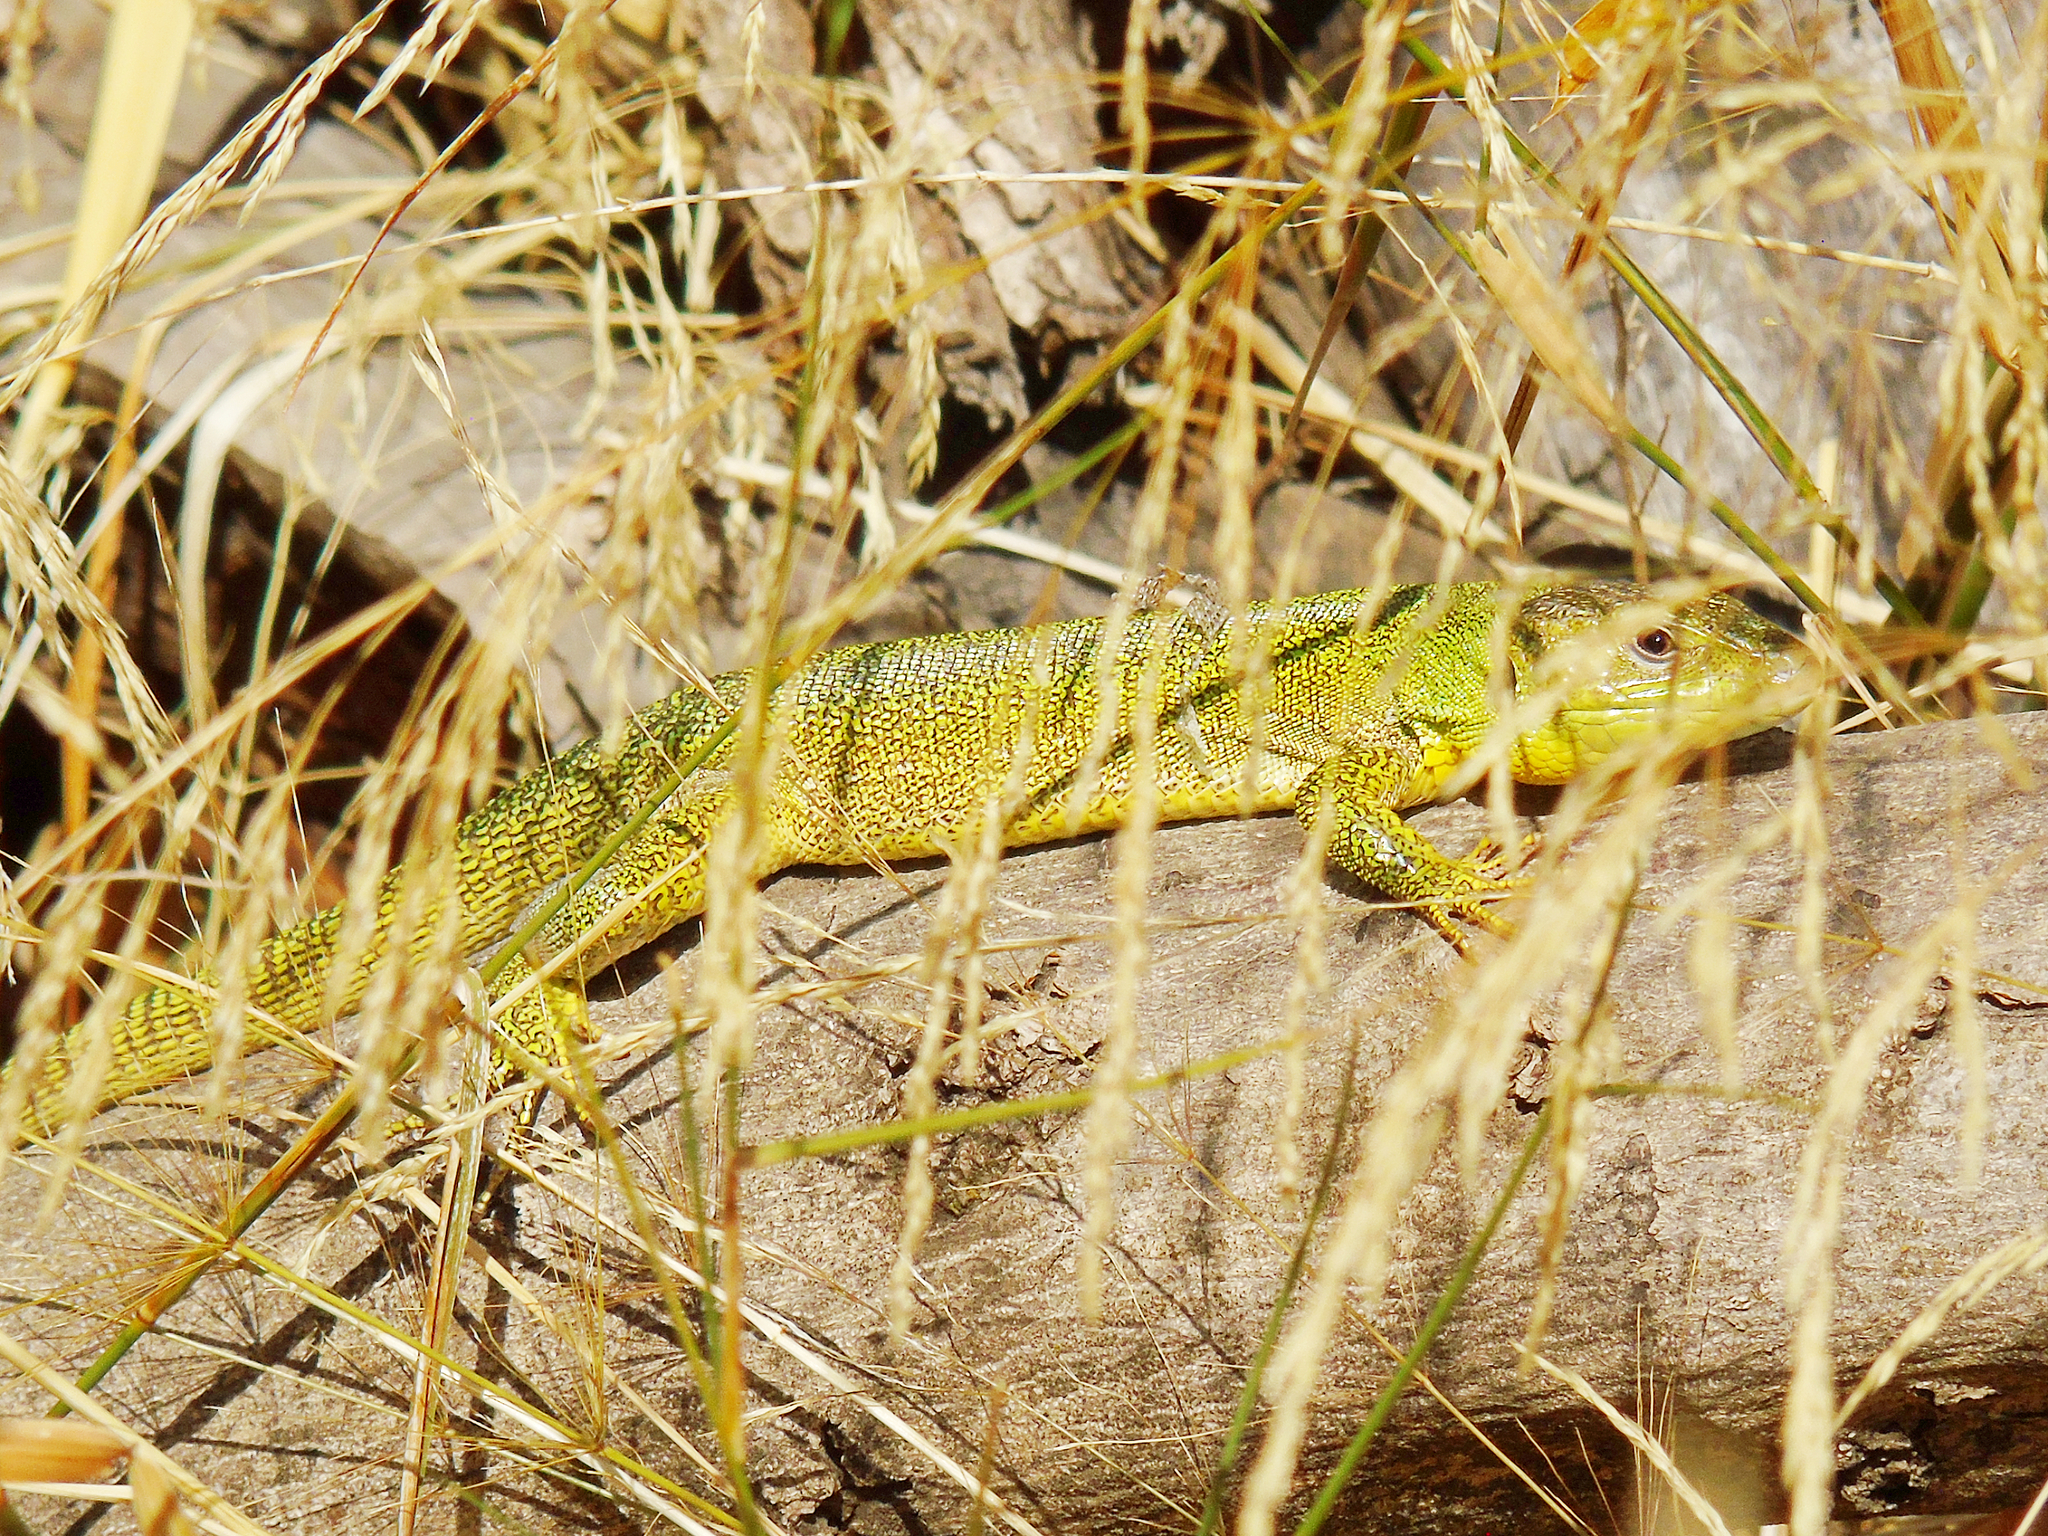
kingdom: Animalia
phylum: Chordata
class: Squamata
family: Lacertidae
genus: Lacerta
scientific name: Lacerta trilineata
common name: Balkan green lizard
